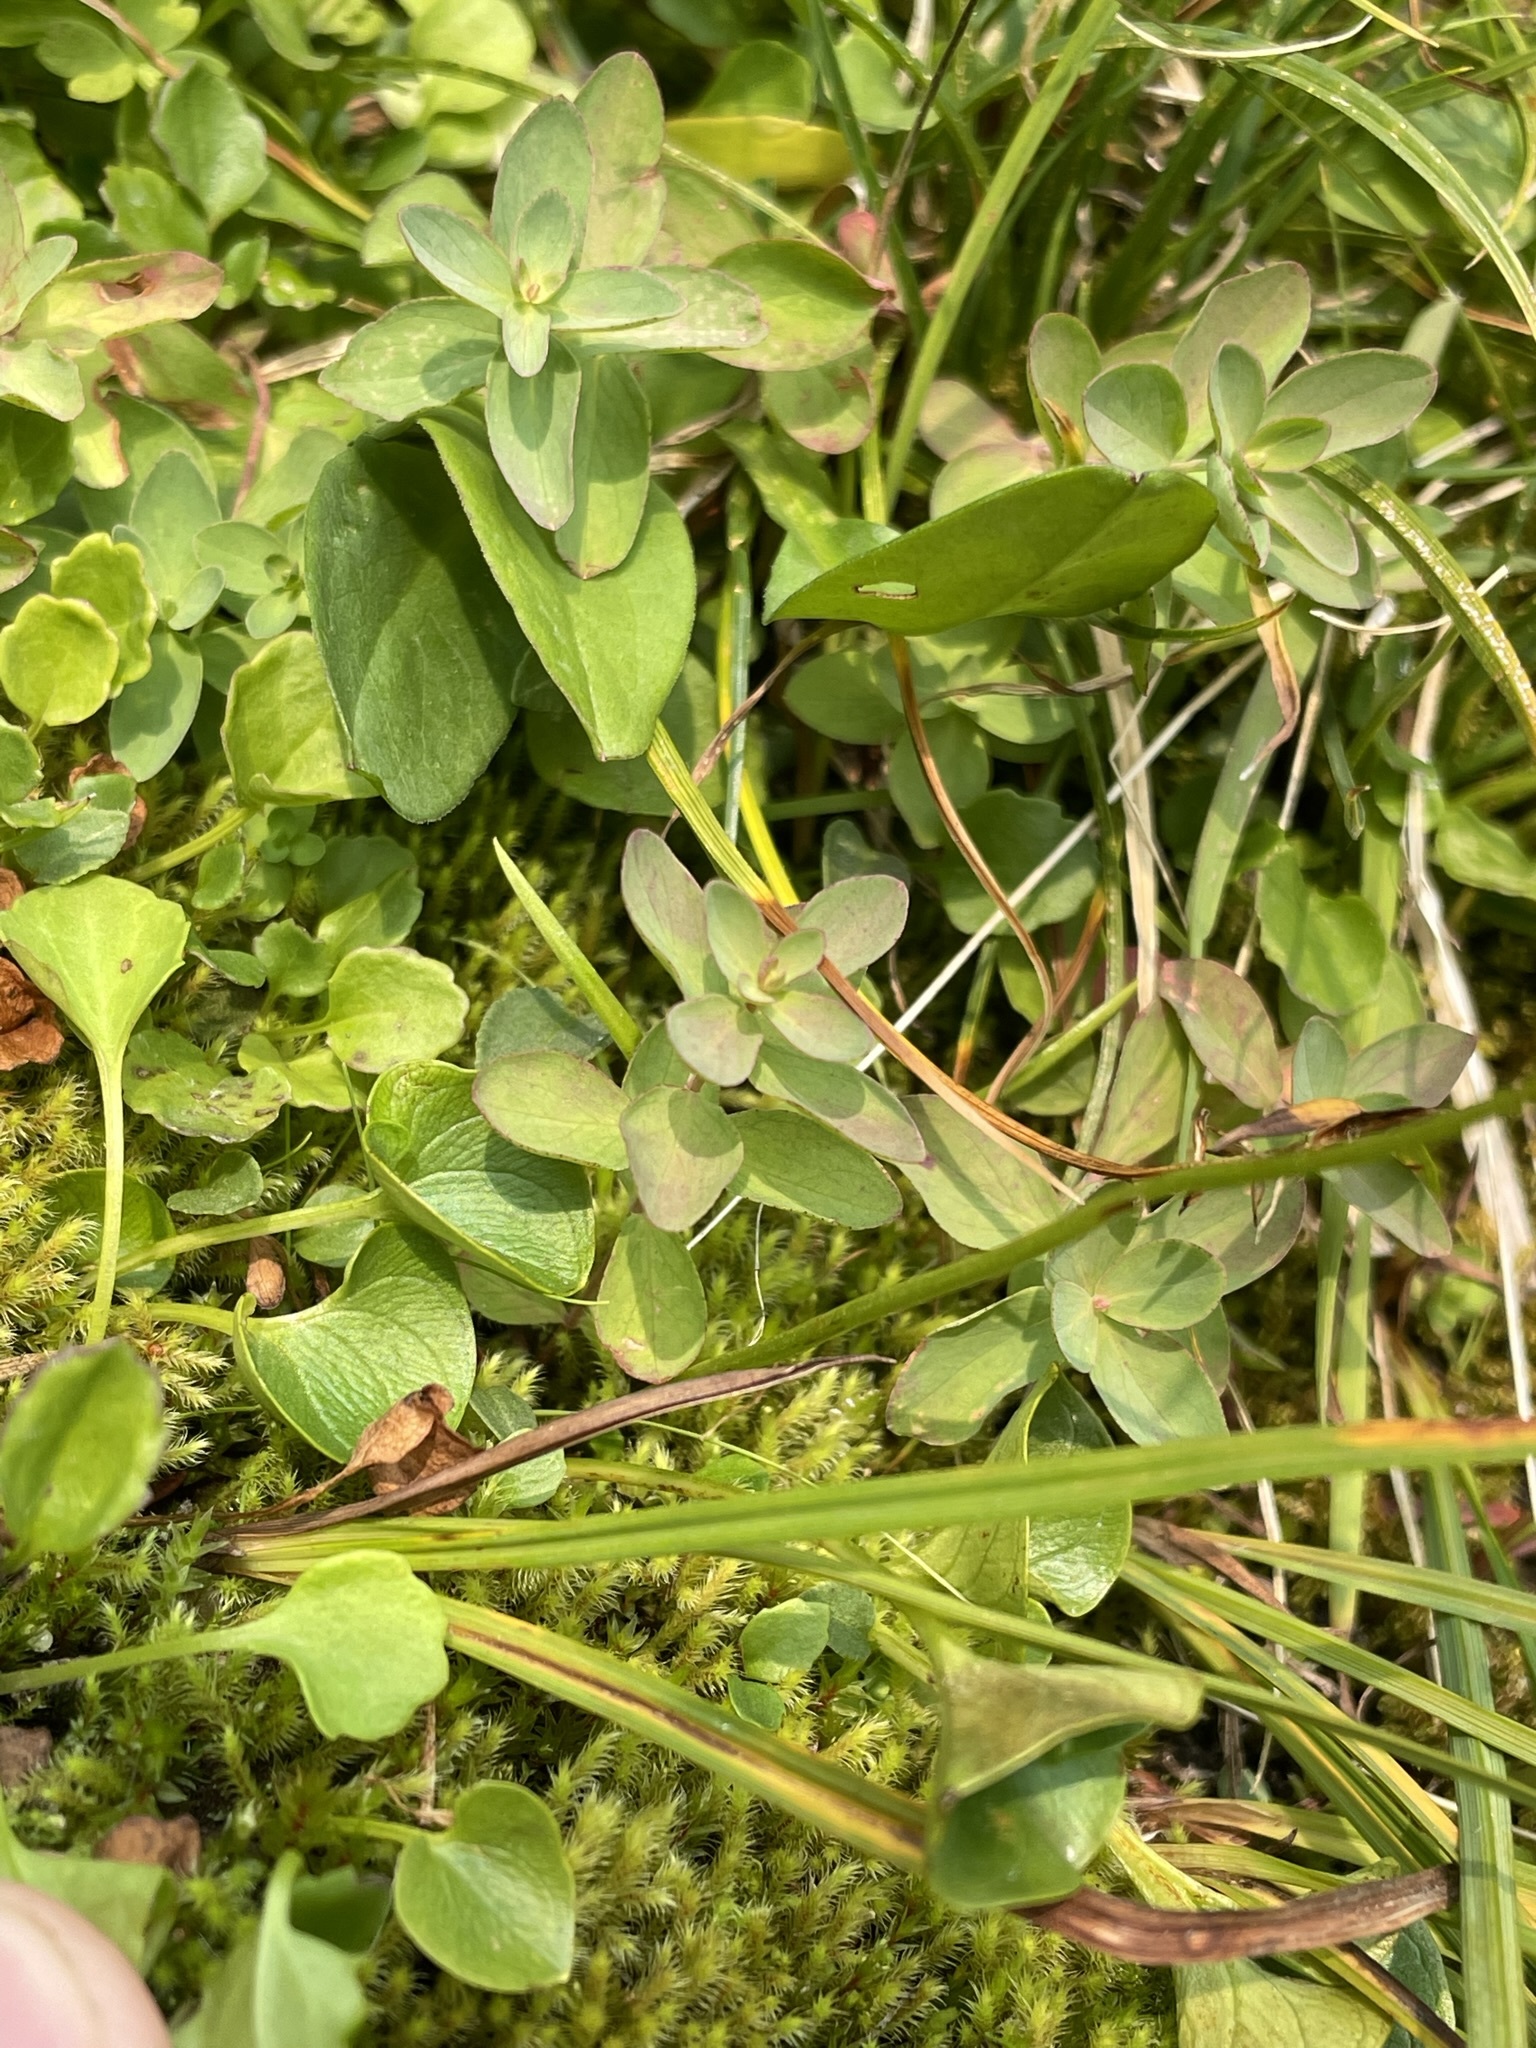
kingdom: Plantae
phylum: Tracheophyta
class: Magnoliopsida
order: Celastrales
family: Parnassiaceae
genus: Parnassia
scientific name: Parnassia fimbriata
